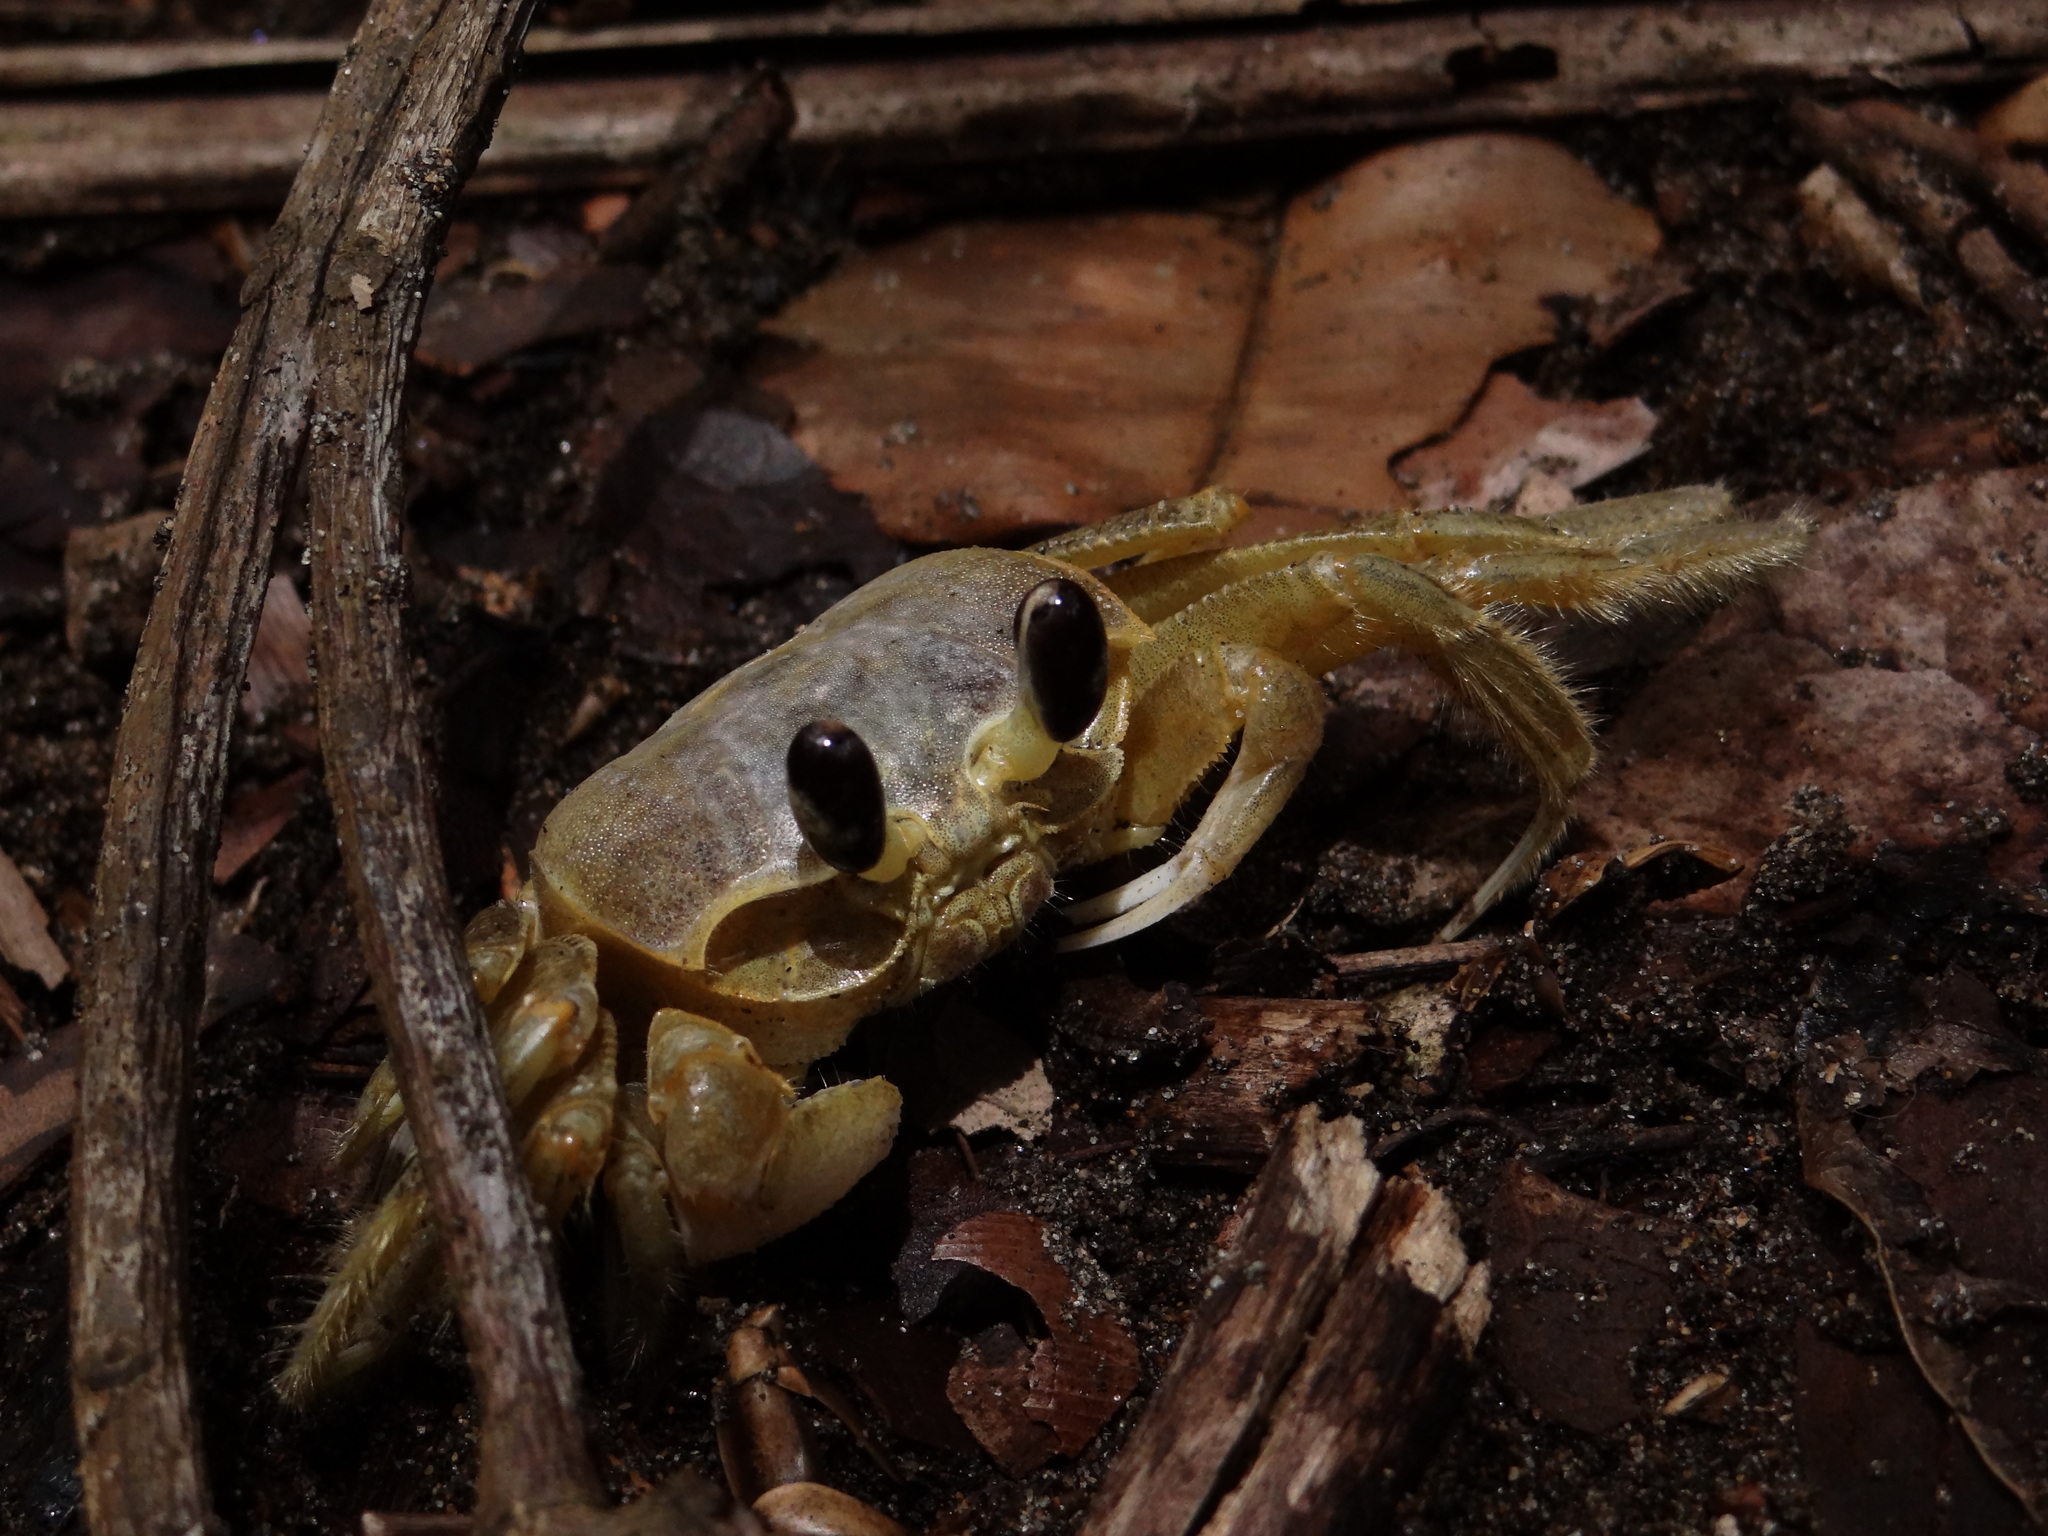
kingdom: Animalia
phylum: Arthropoda
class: Malacostraca
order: Decapoda
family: Ocypodidae
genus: Ocypode
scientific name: Ocypode quadrata
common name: Ghost crab
